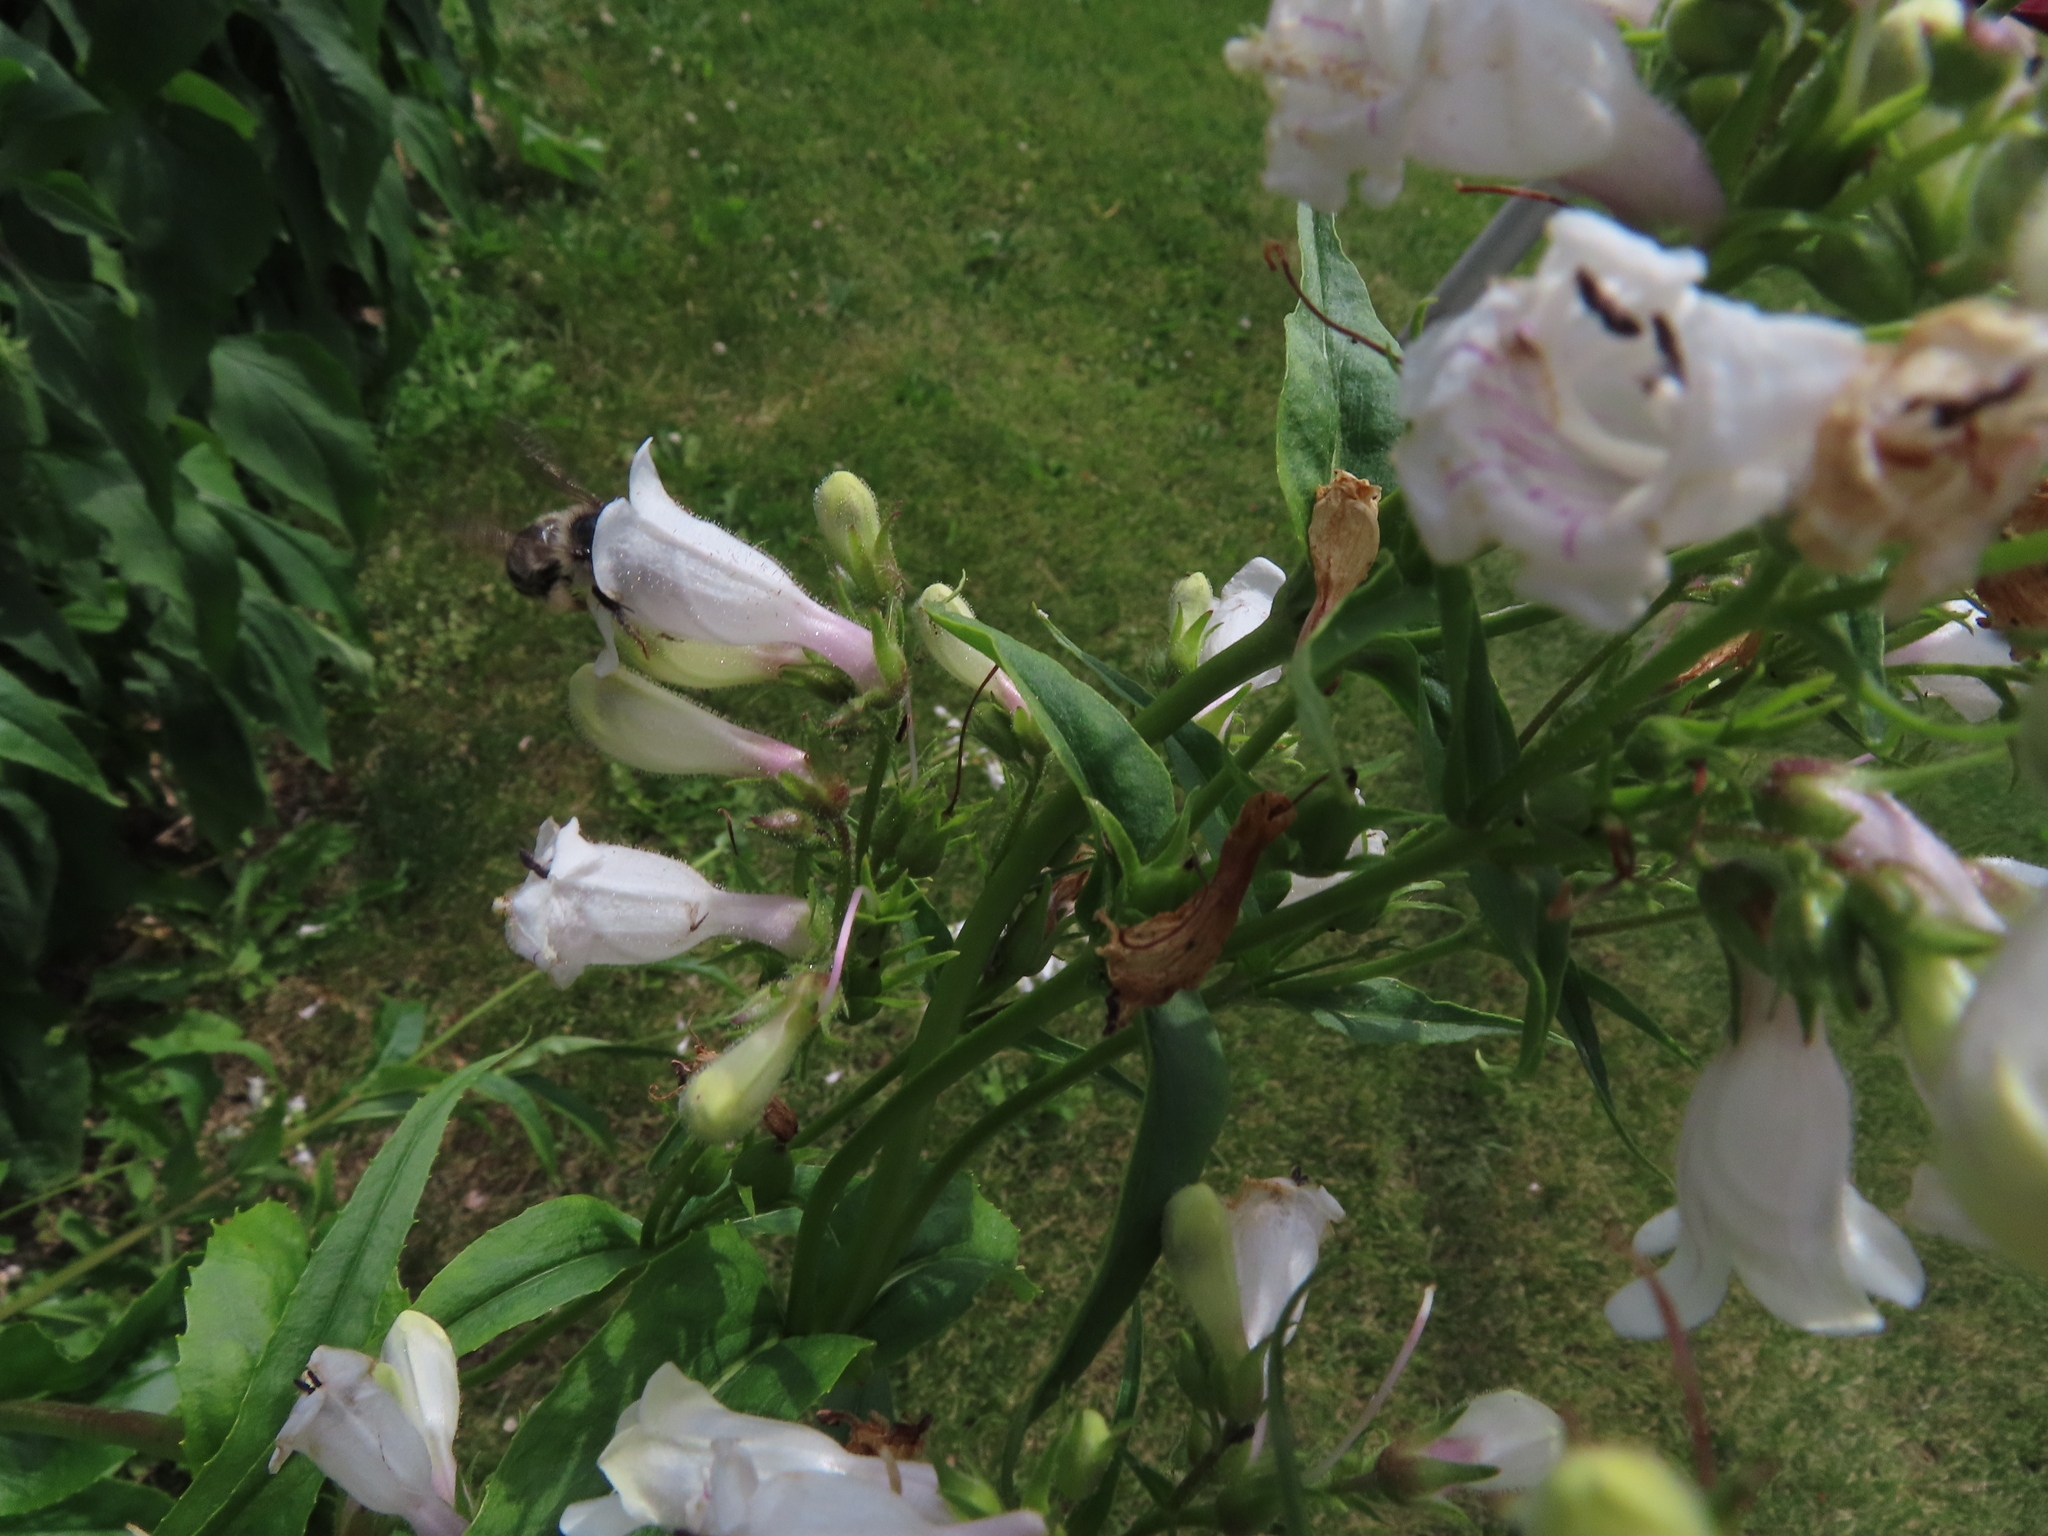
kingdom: Animalia
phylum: Arthropoda
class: Insecta
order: Hymenoptera
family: Apidae
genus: Bombus
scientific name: Bombus
